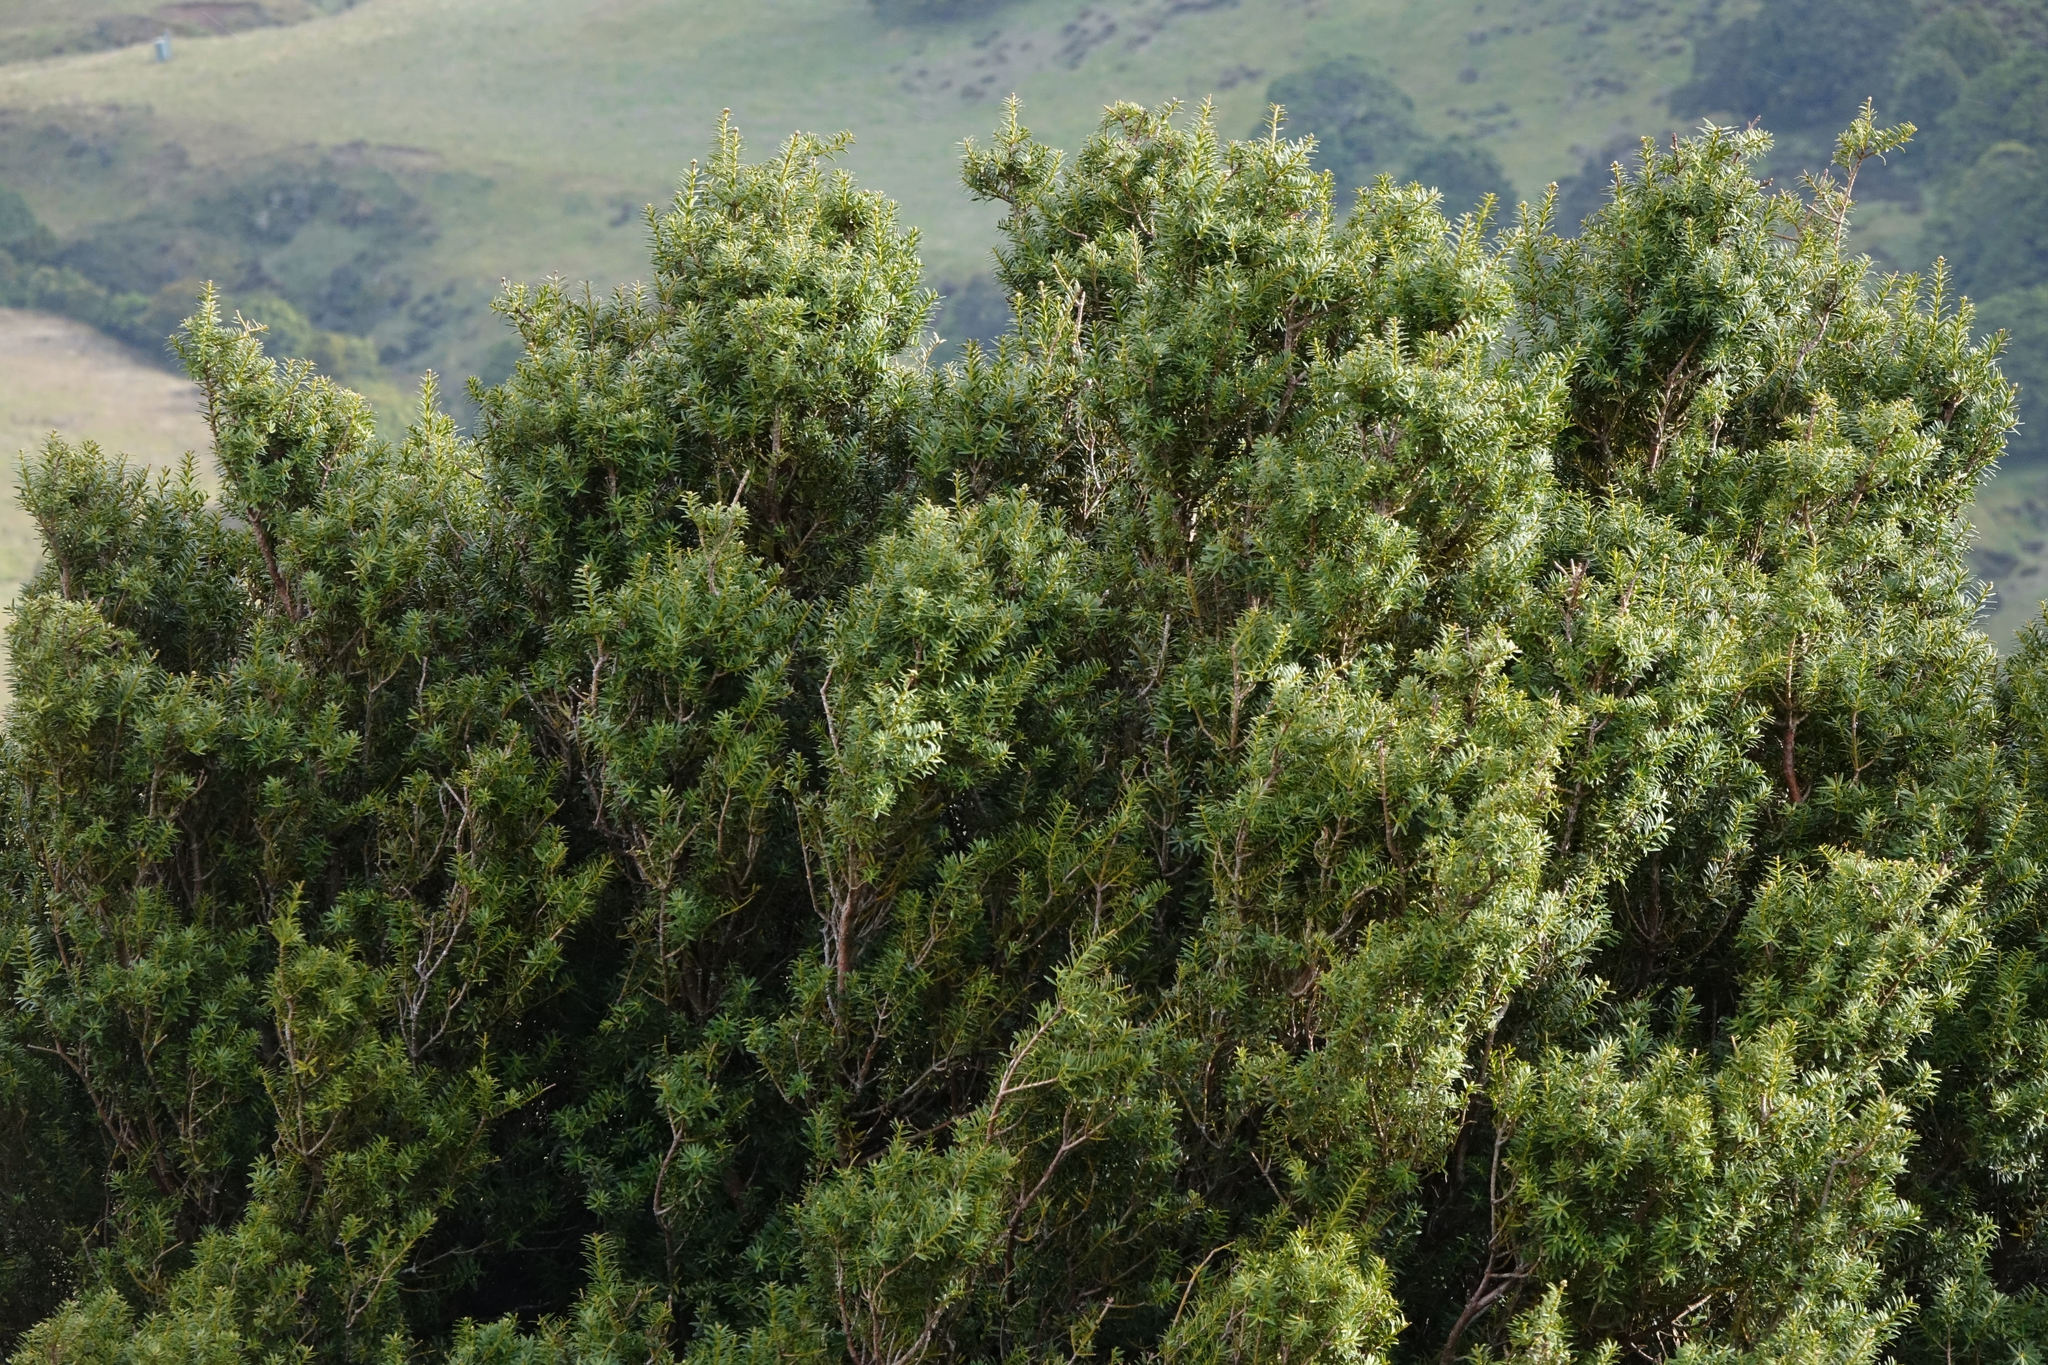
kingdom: Plantae
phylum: Tracheophyta
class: Pinopsida
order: Pinales
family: Podocarpaceae
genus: Podocarpus
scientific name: Podocarpus laetus
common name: Hall's totara
